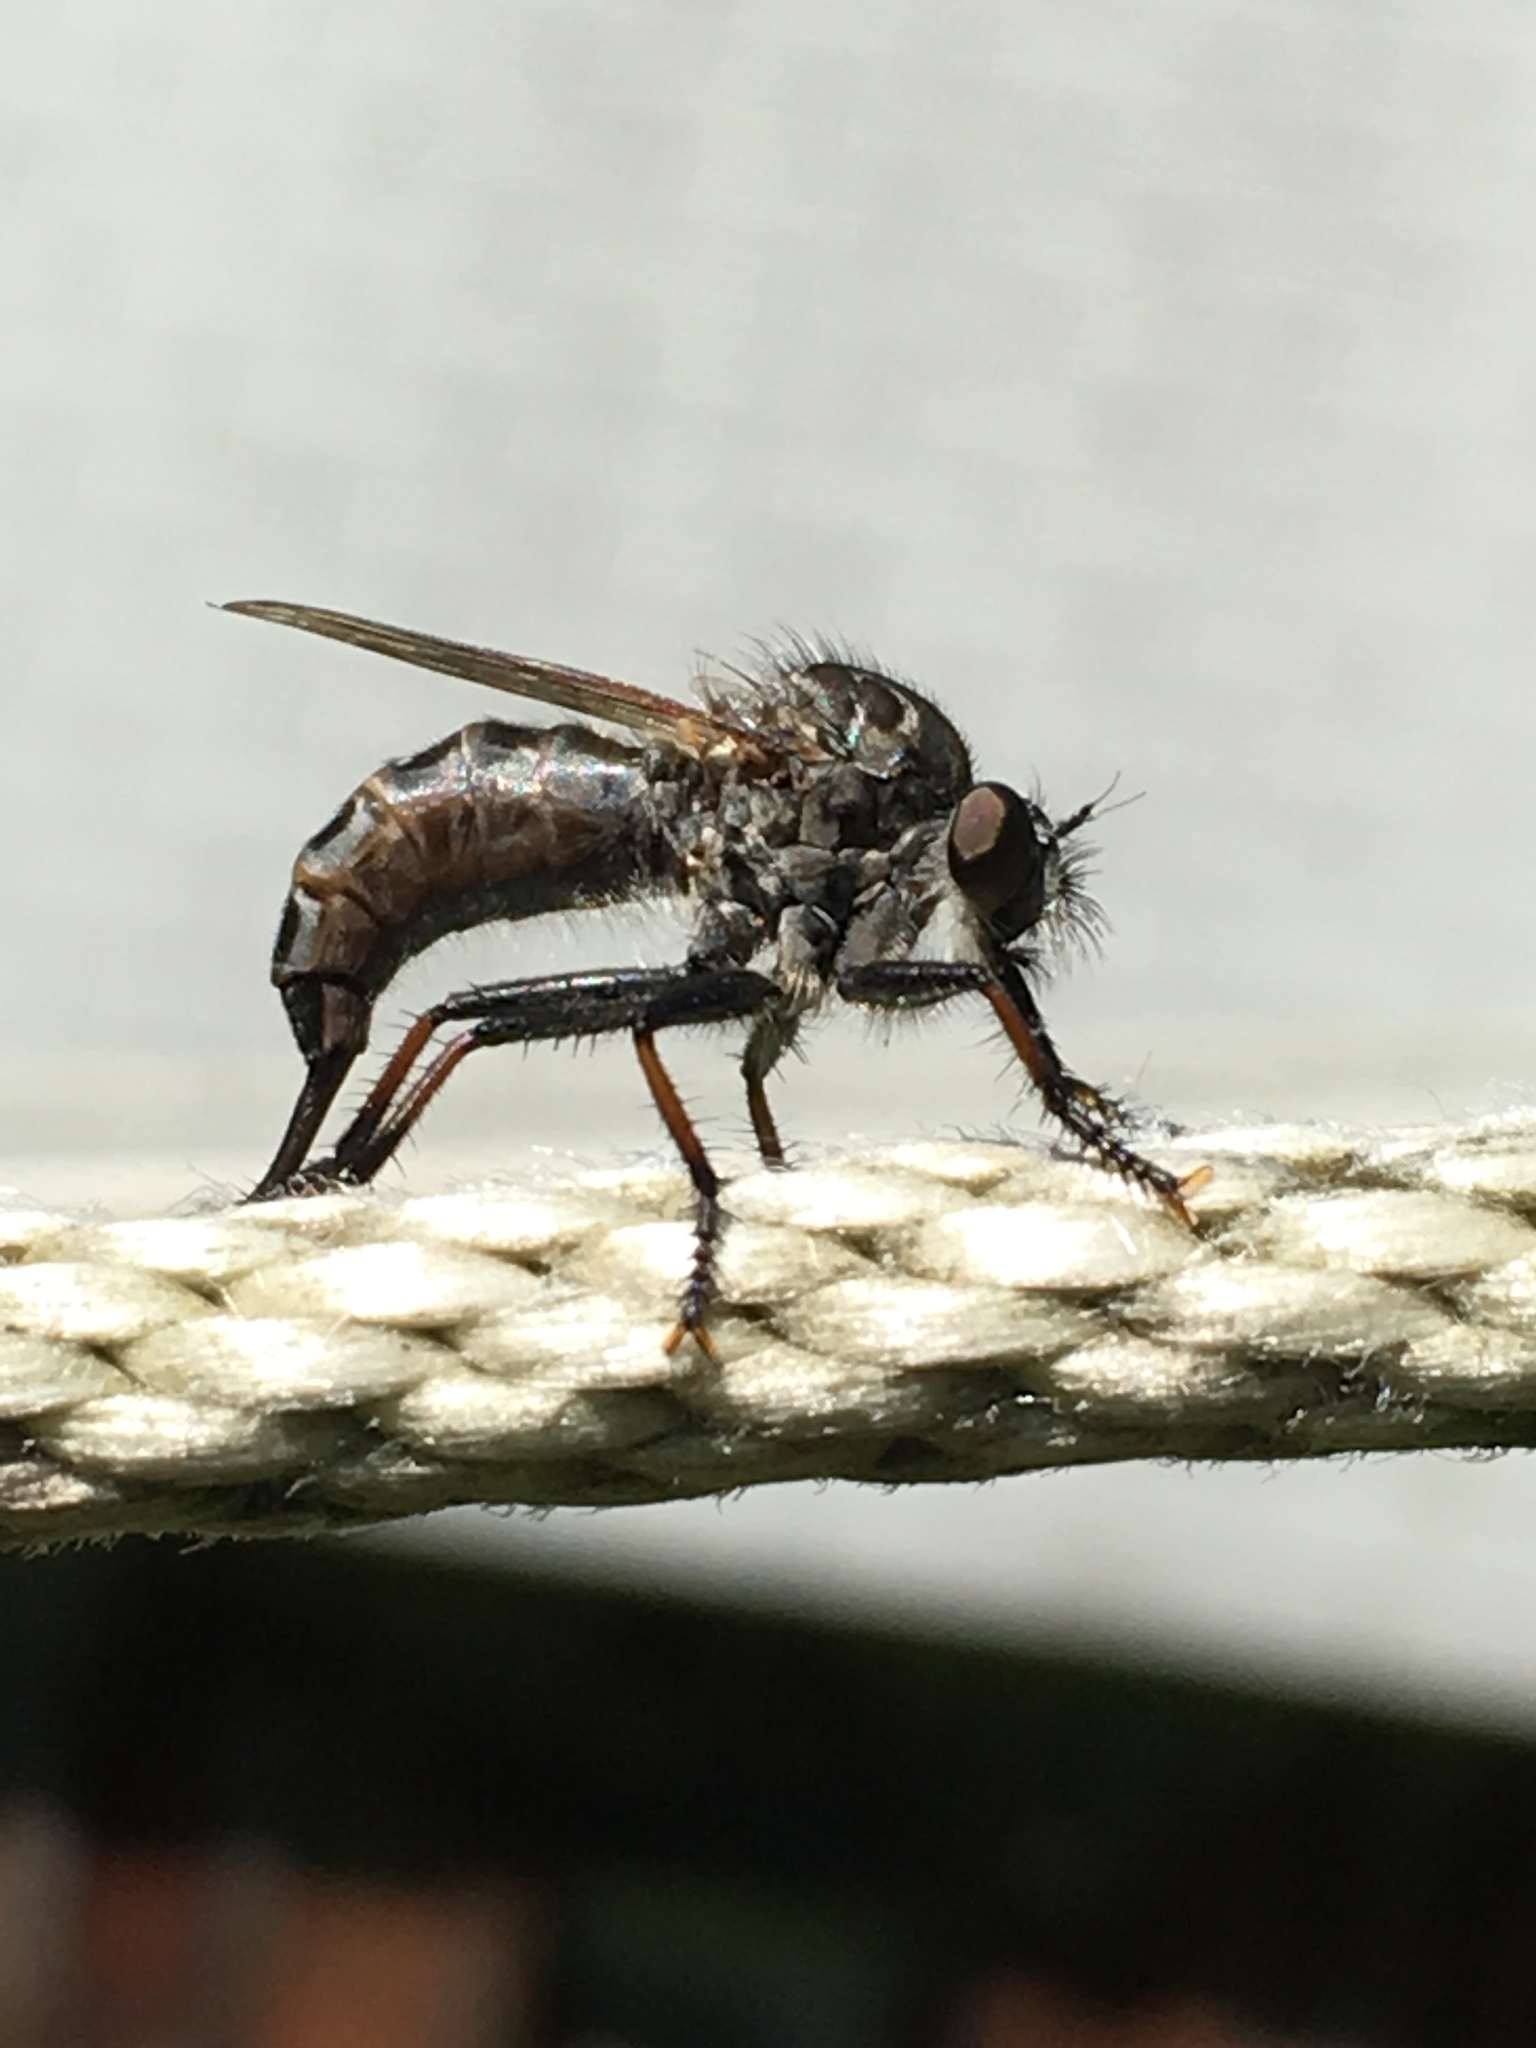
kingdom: Animalia
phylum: Arthropoda
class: Insecta
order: Diptera
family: Asilidae
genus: Efferia
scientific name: Efferia aestuans
